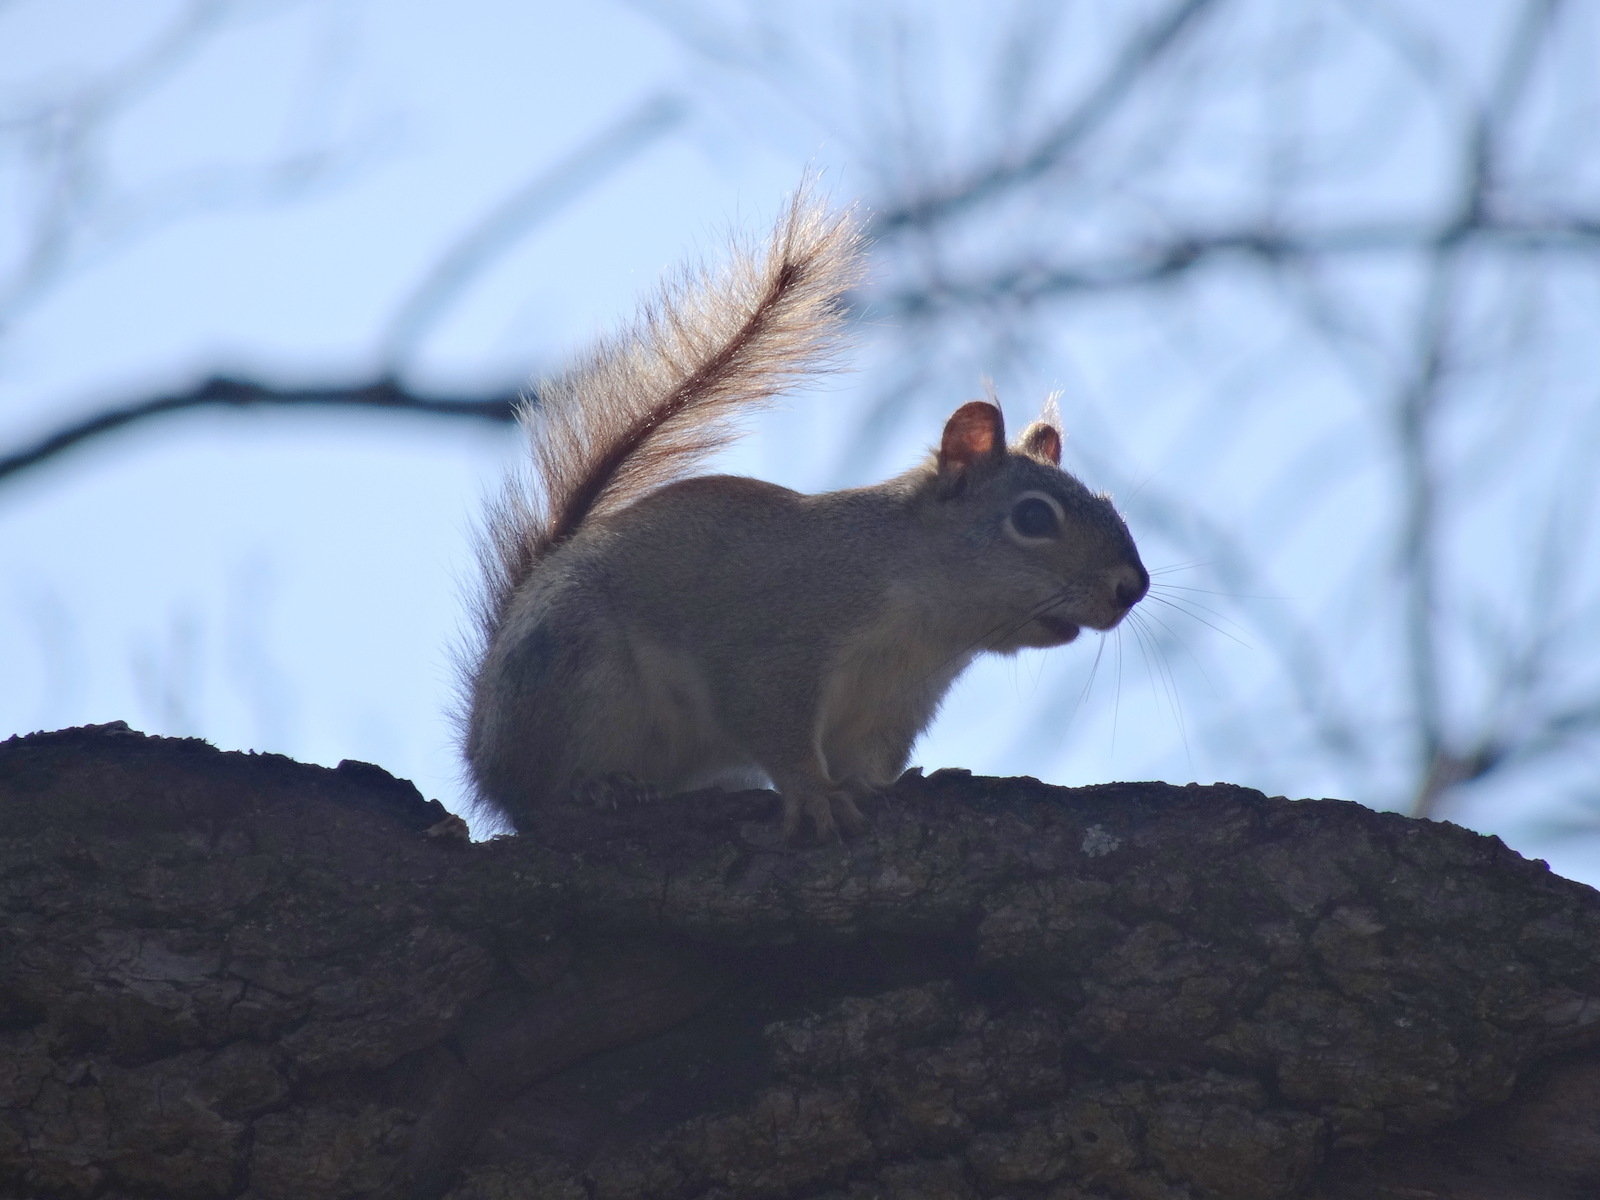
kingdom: Animalia
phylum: Chordata
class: Mammalia
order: Rodentia
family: Sciuridae
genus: Tamiasciurus
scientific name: Tamiasciurus hudsonicus
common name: Red squirrel
